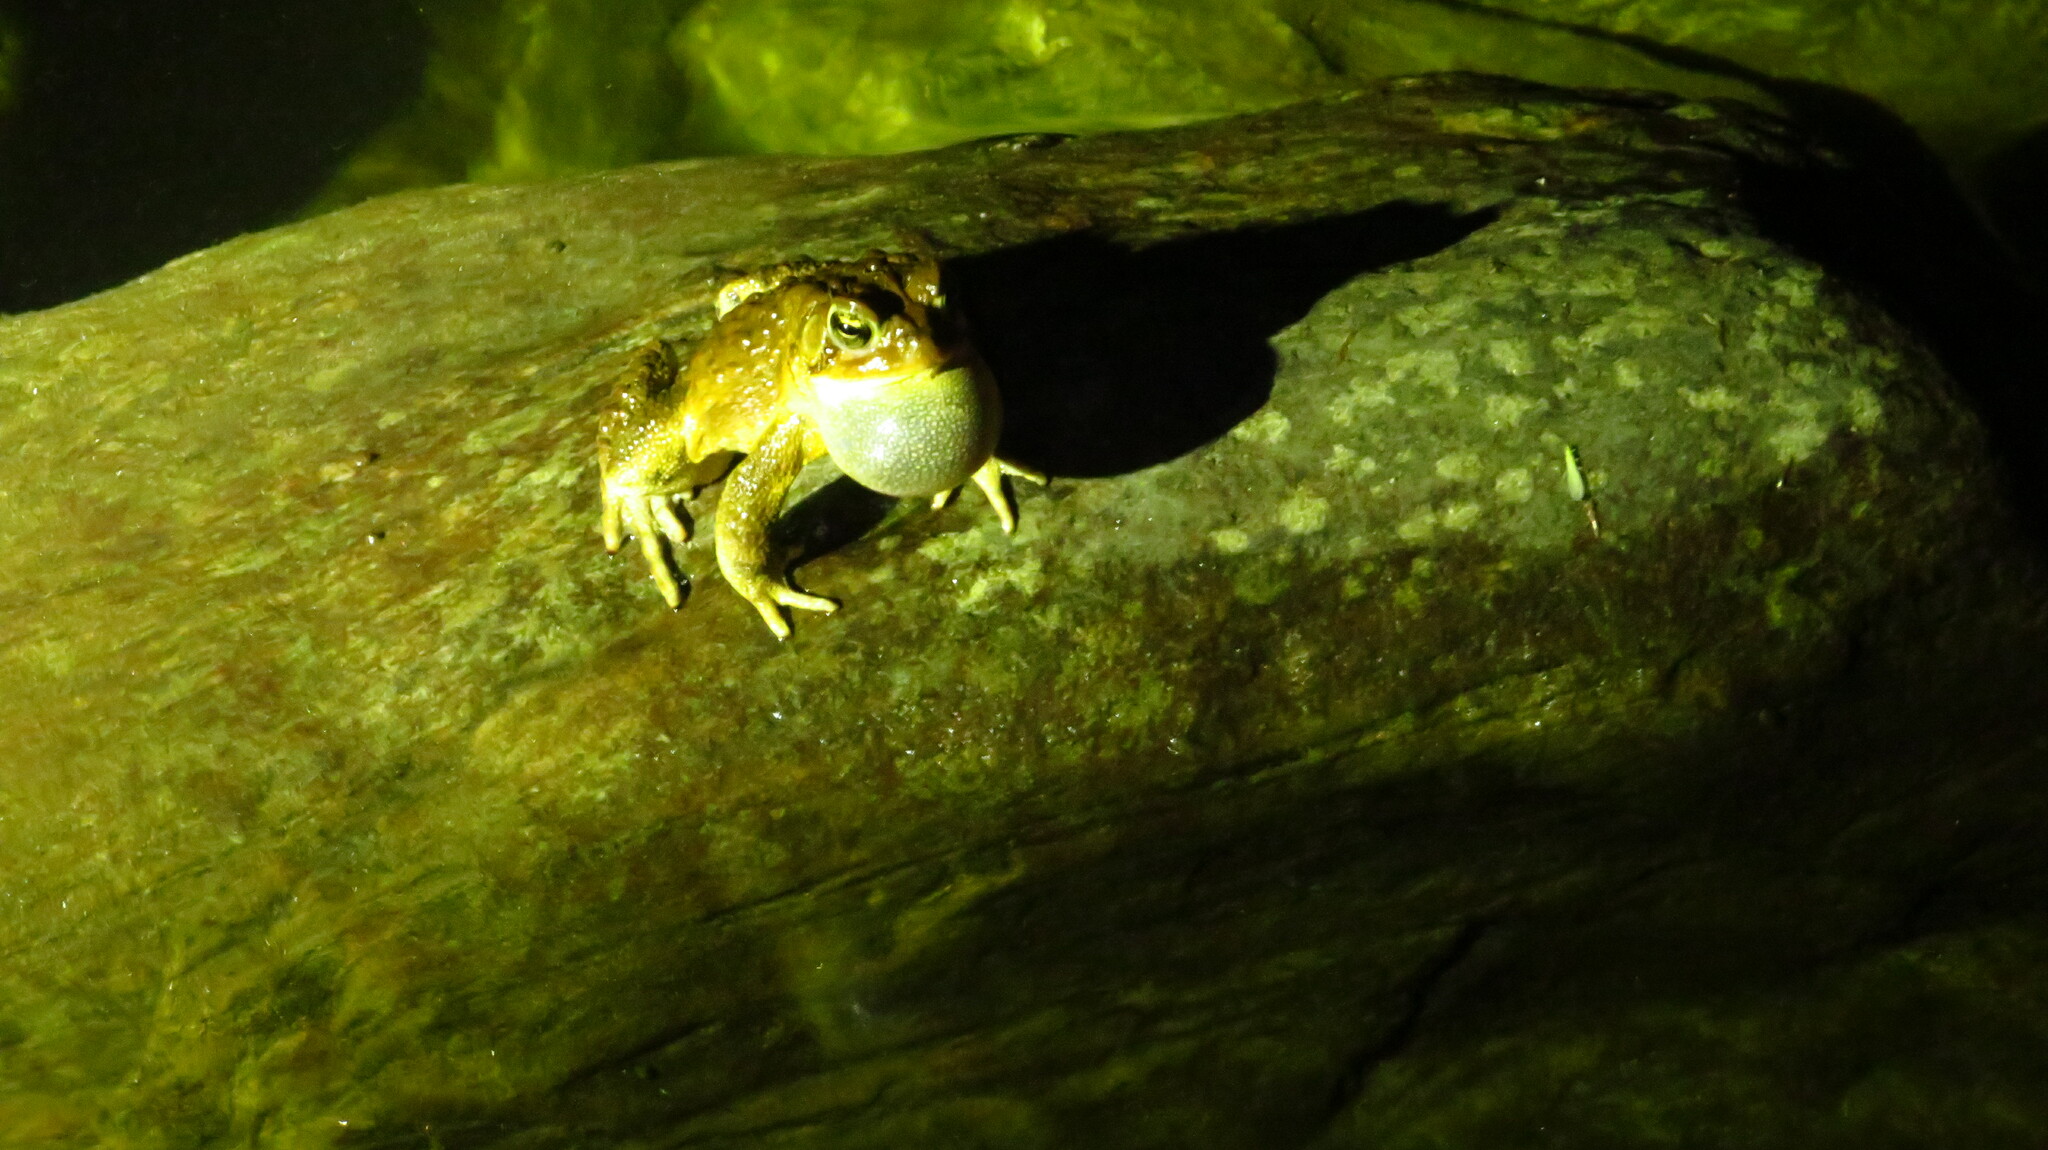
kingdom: Animalia
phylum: Chordata
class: Amphibia
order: Anura
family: Bufonidae
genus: Anaxyrus
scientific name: Anaxyrus americanus
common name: American toad
